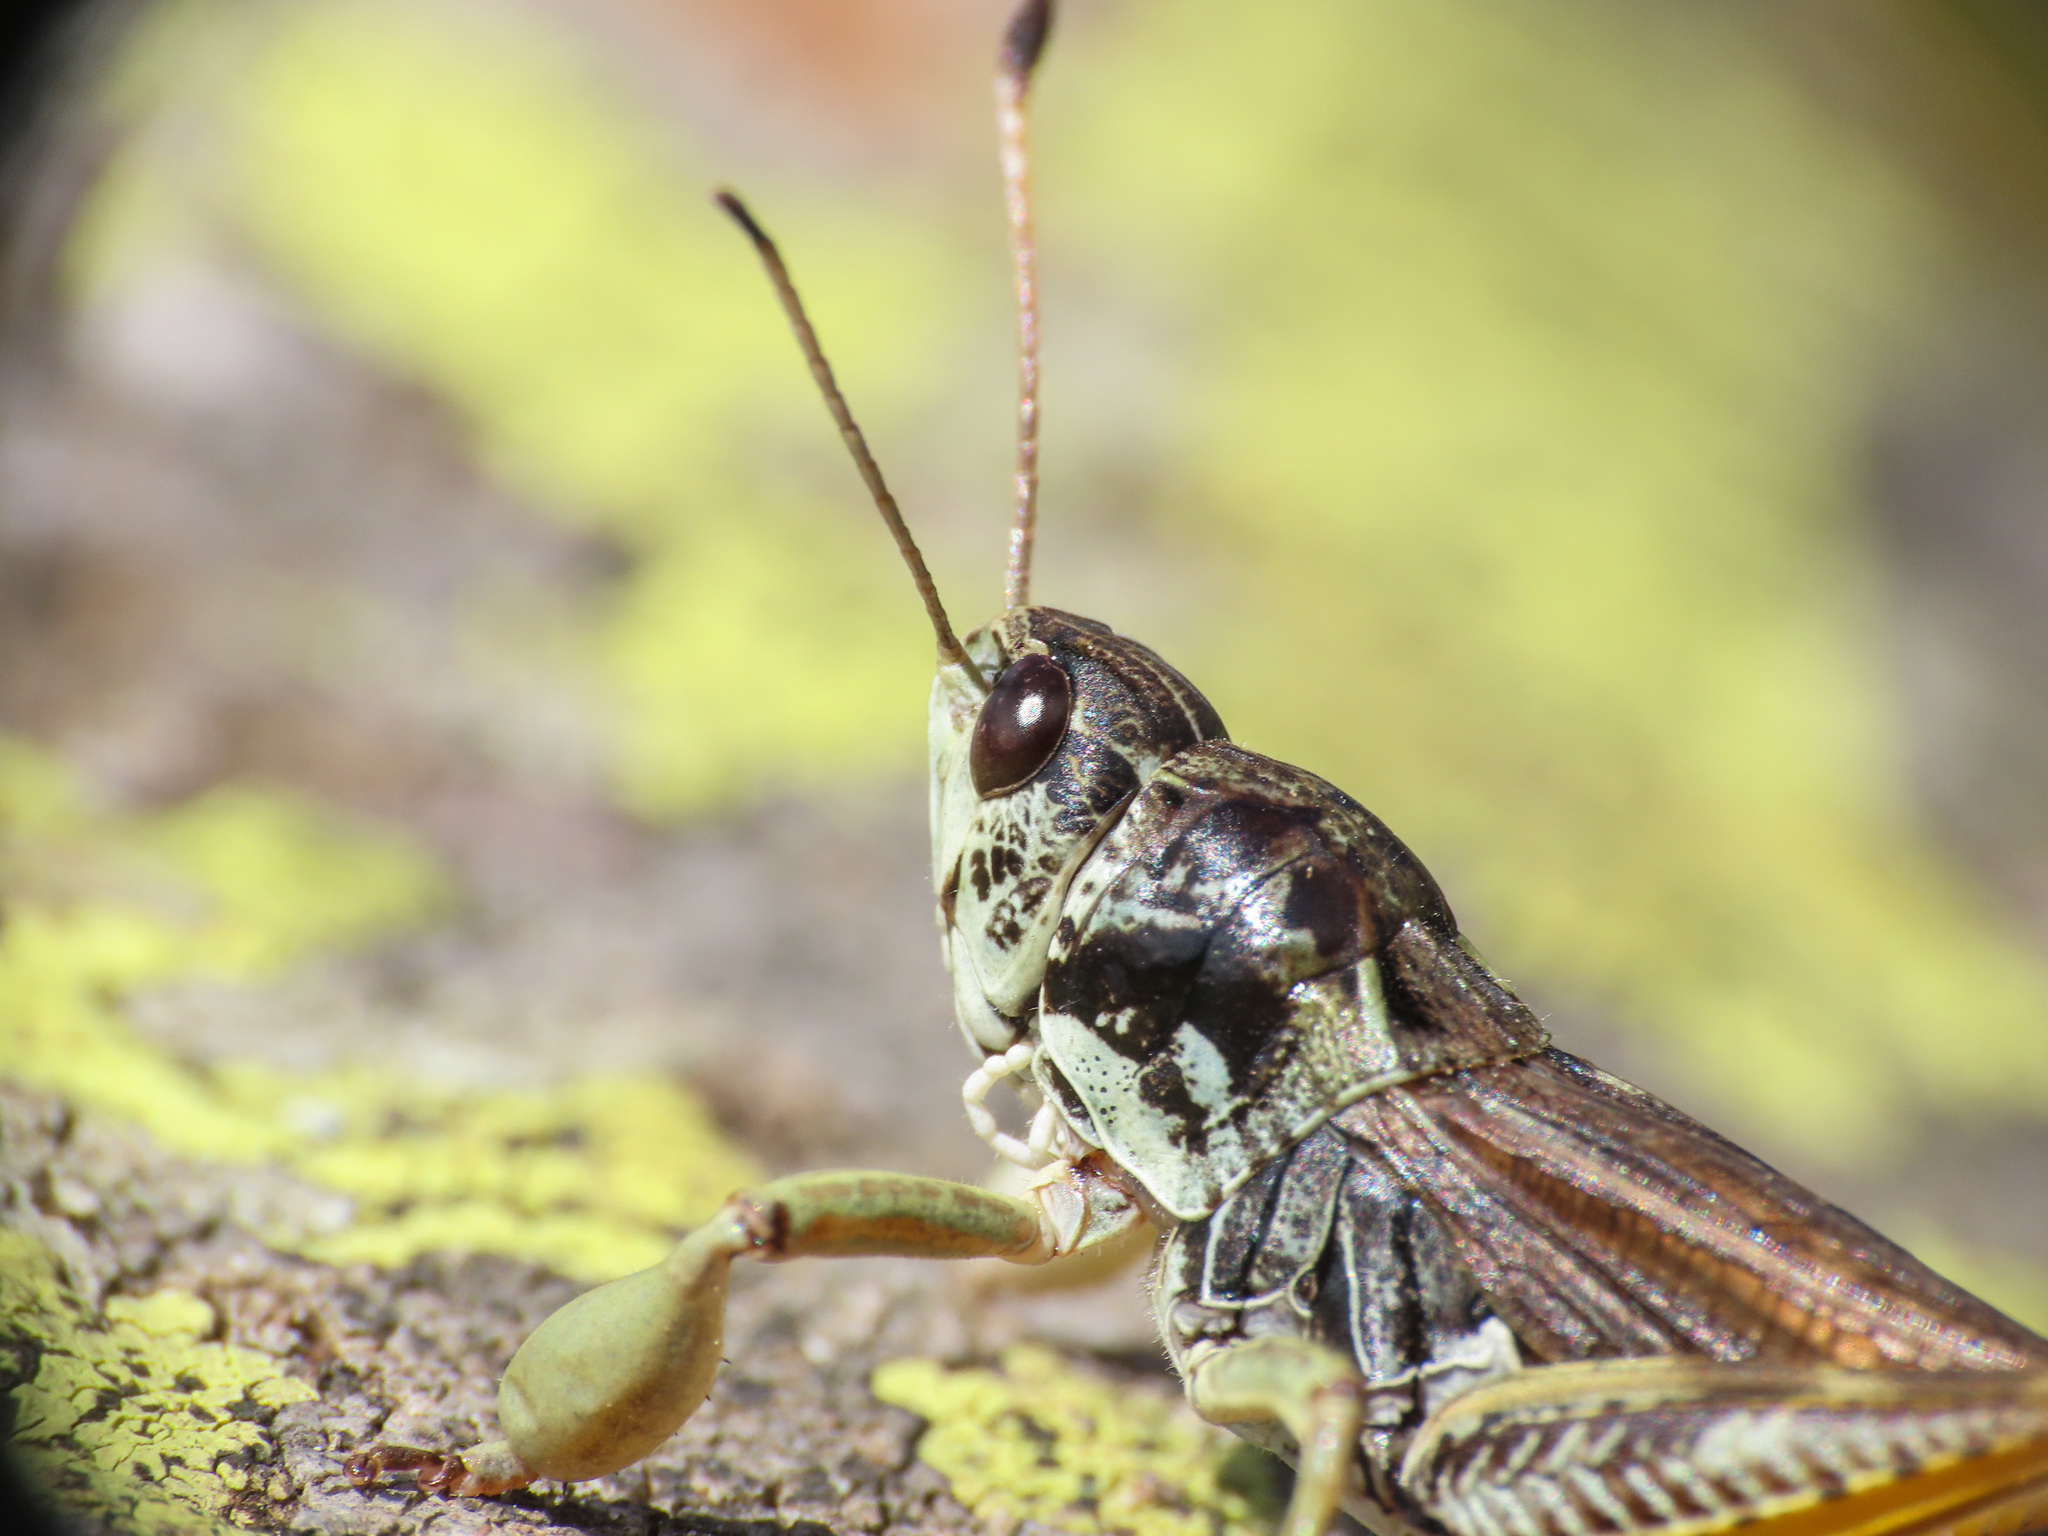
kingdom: Animalia
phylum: Arthropoda
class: Insecta
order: Orthoptera
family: Acrididae
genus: Gomphocerus
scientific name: Gomphocerus sibiricus
